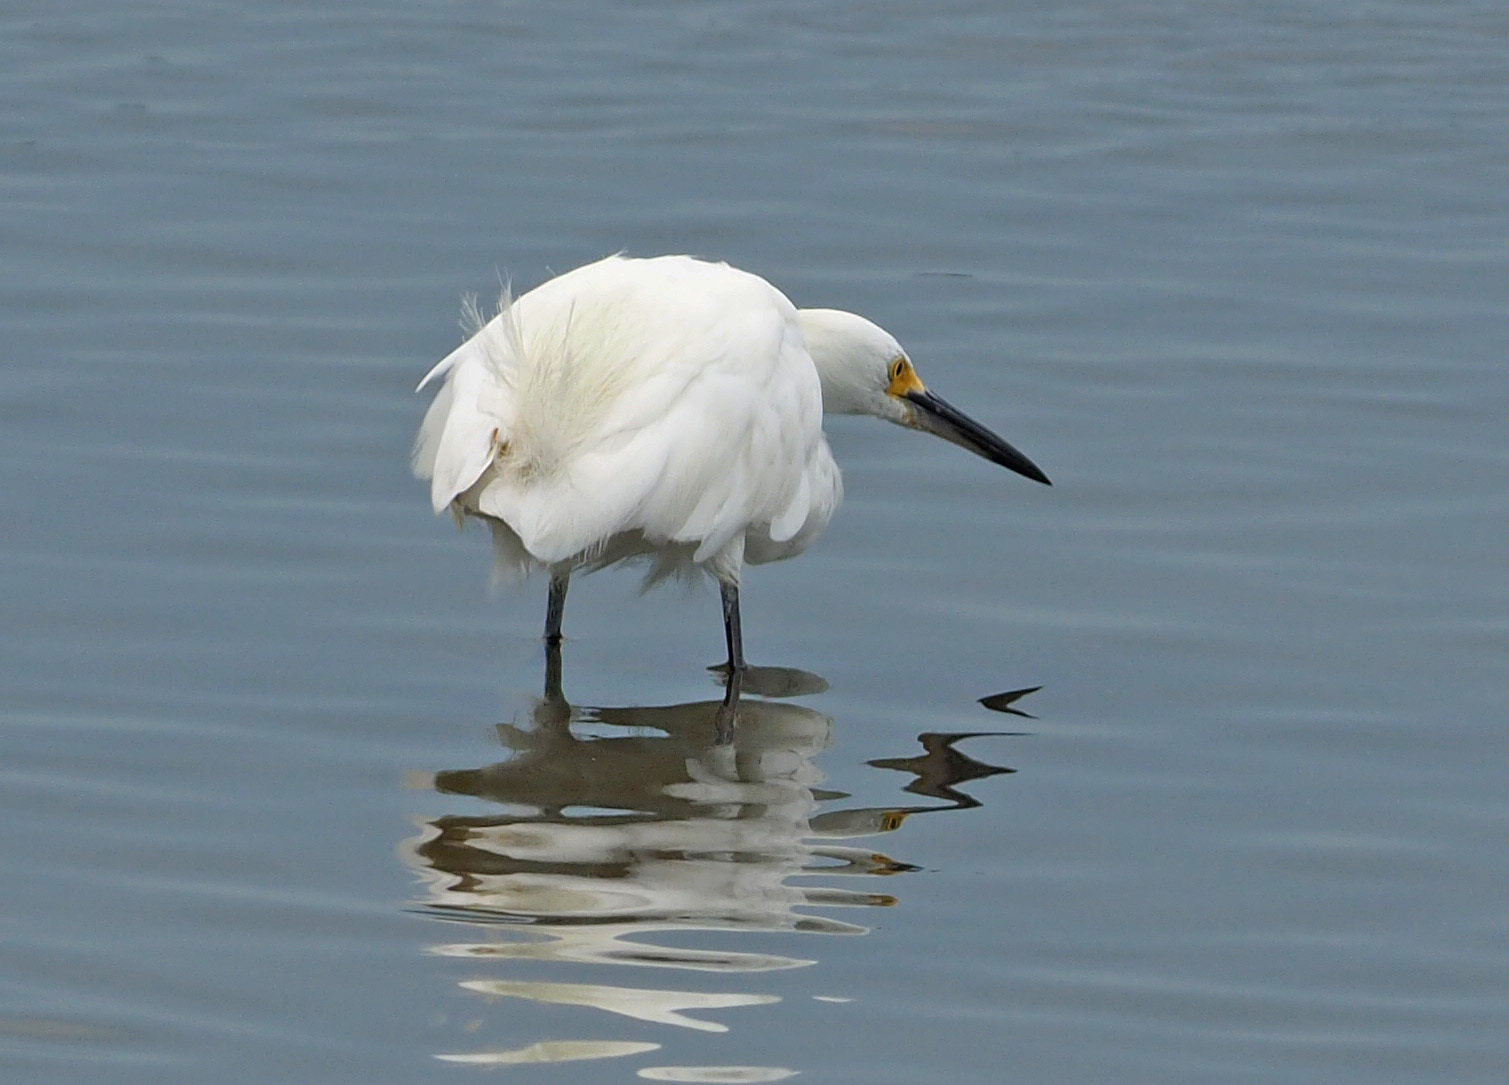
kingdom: Animalia
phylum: Chordata
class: Aves
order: Pelecaniformes
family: Ardeidae
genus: Egretta
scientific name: Egretta thula
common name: Snowy egret
